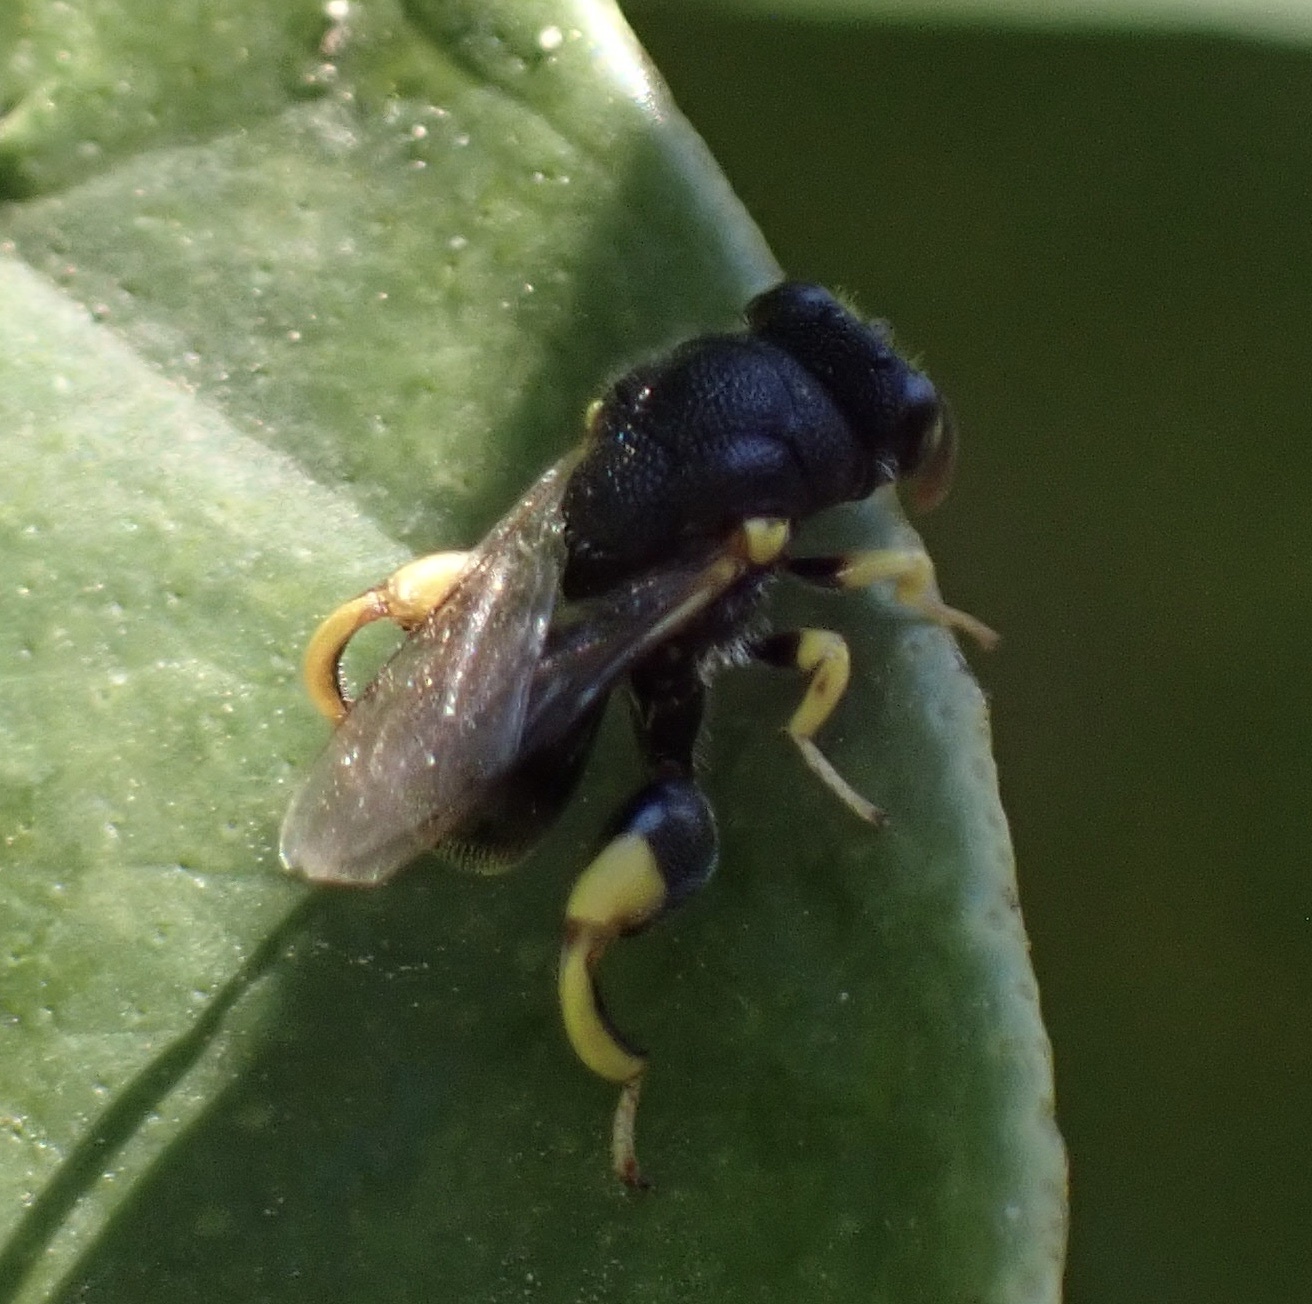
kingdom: Animalia
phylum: Arthropoda
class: Insecta
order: Hymenoptera
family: Chalcididae
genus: Brachymeria
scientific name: Brachymeria tibialis
